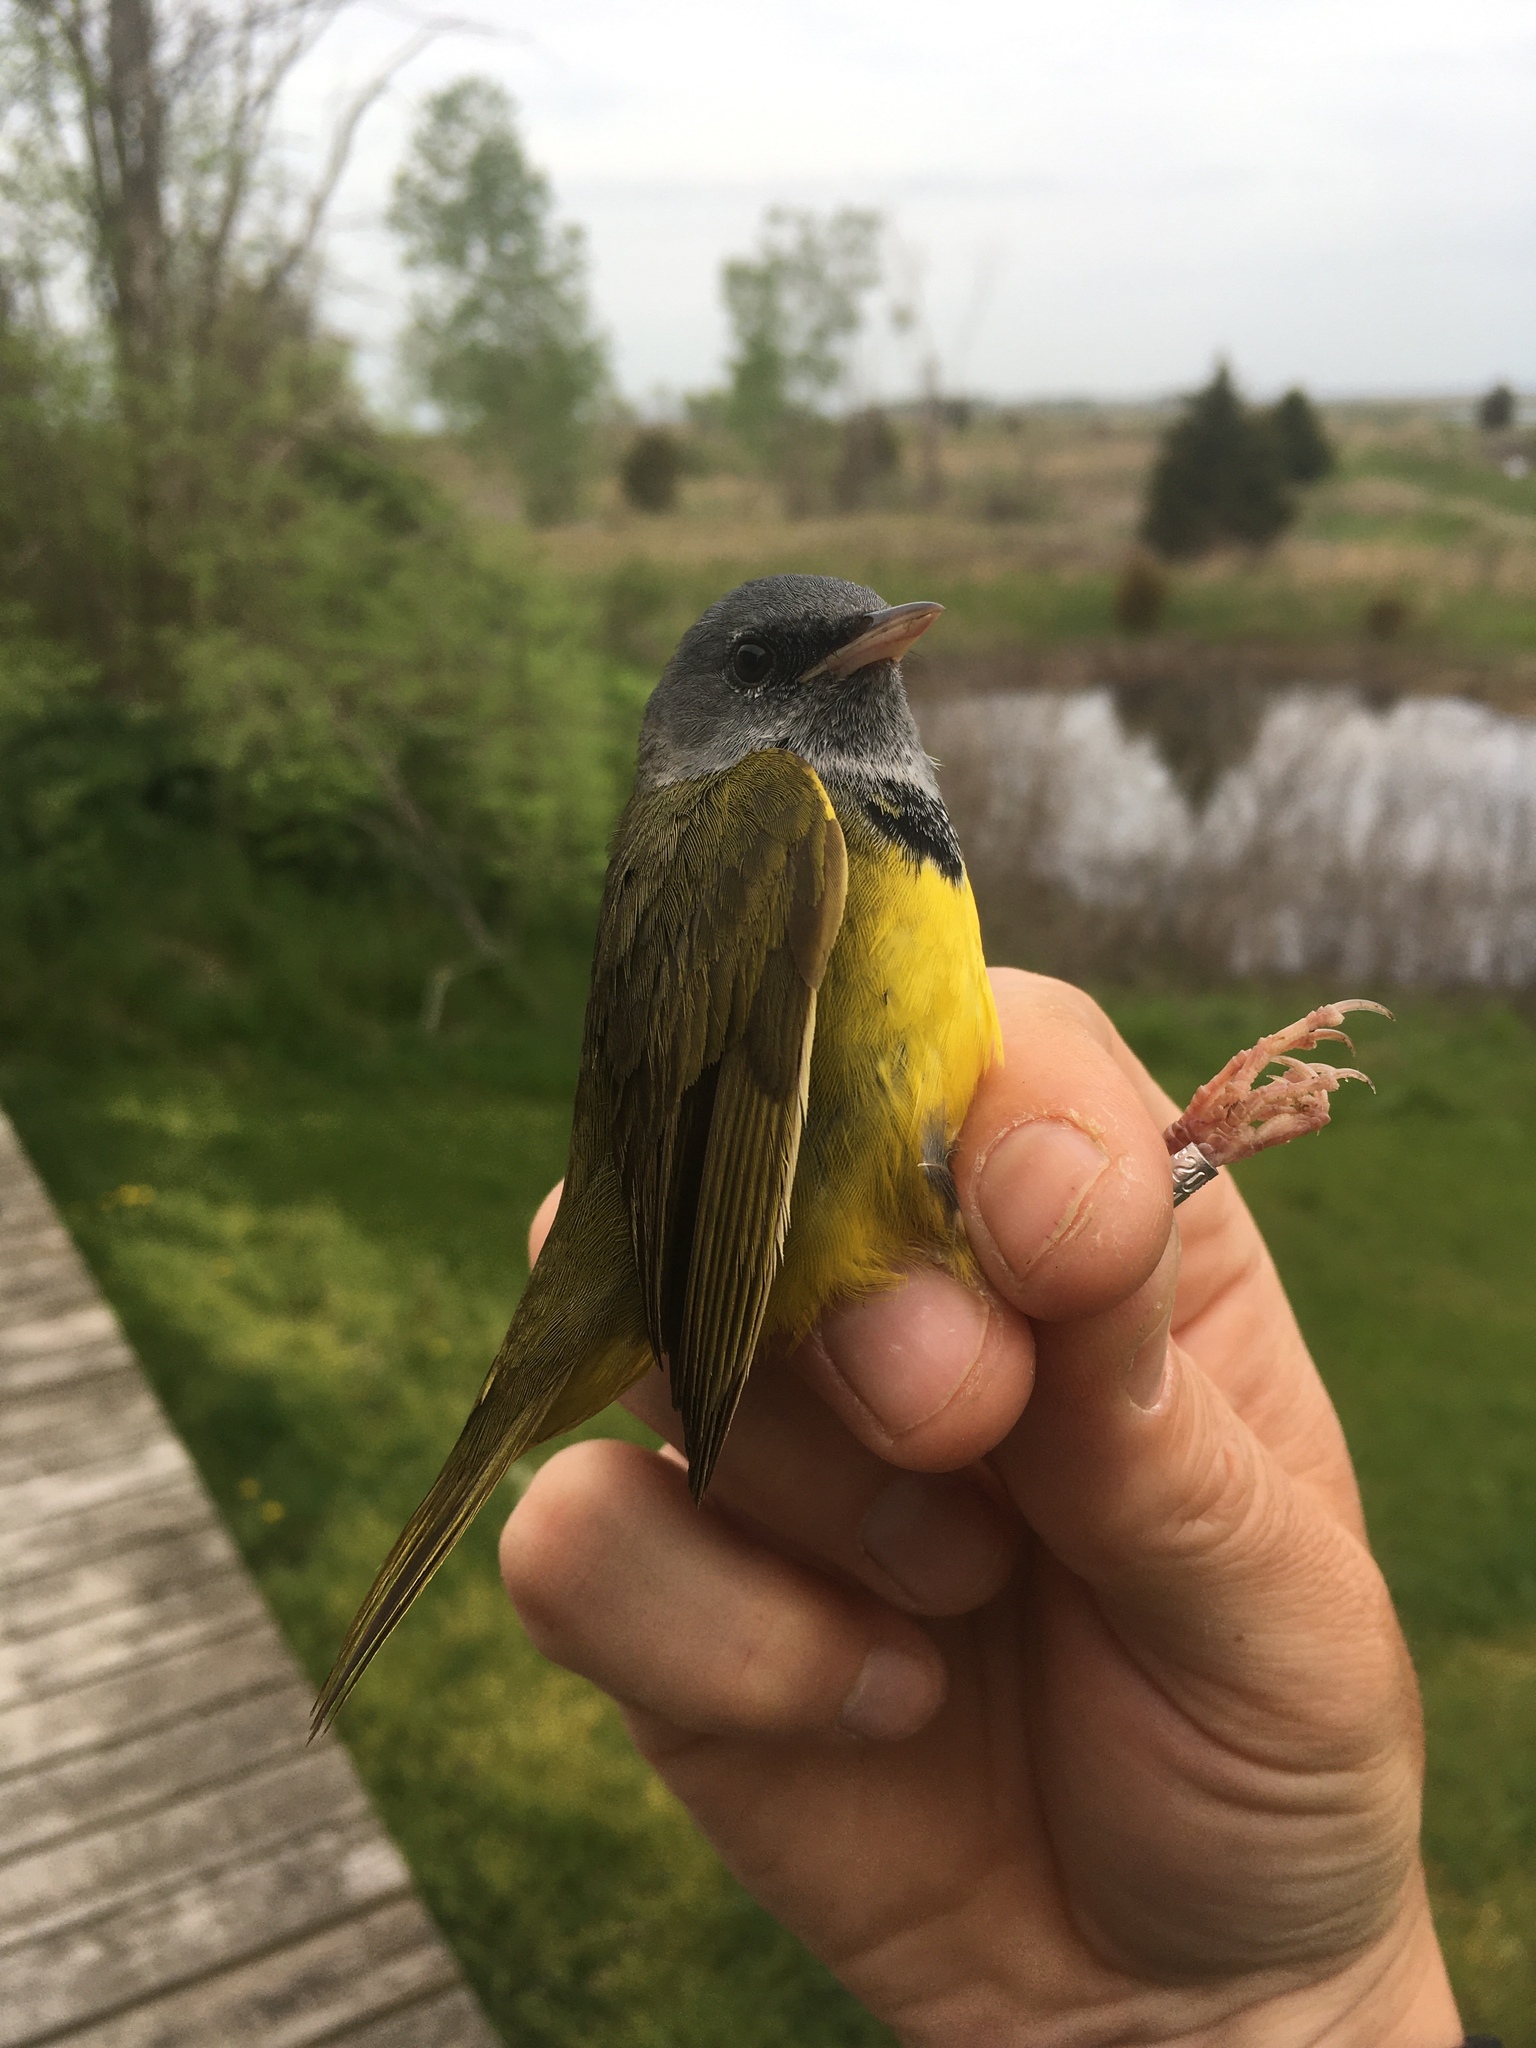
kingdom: Animalia
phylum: Chordata
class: Aves
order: Passeriformes
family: Parulidae
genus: Geothlypis
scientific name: Geothlypis philadelphia
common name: Mourning warbler
